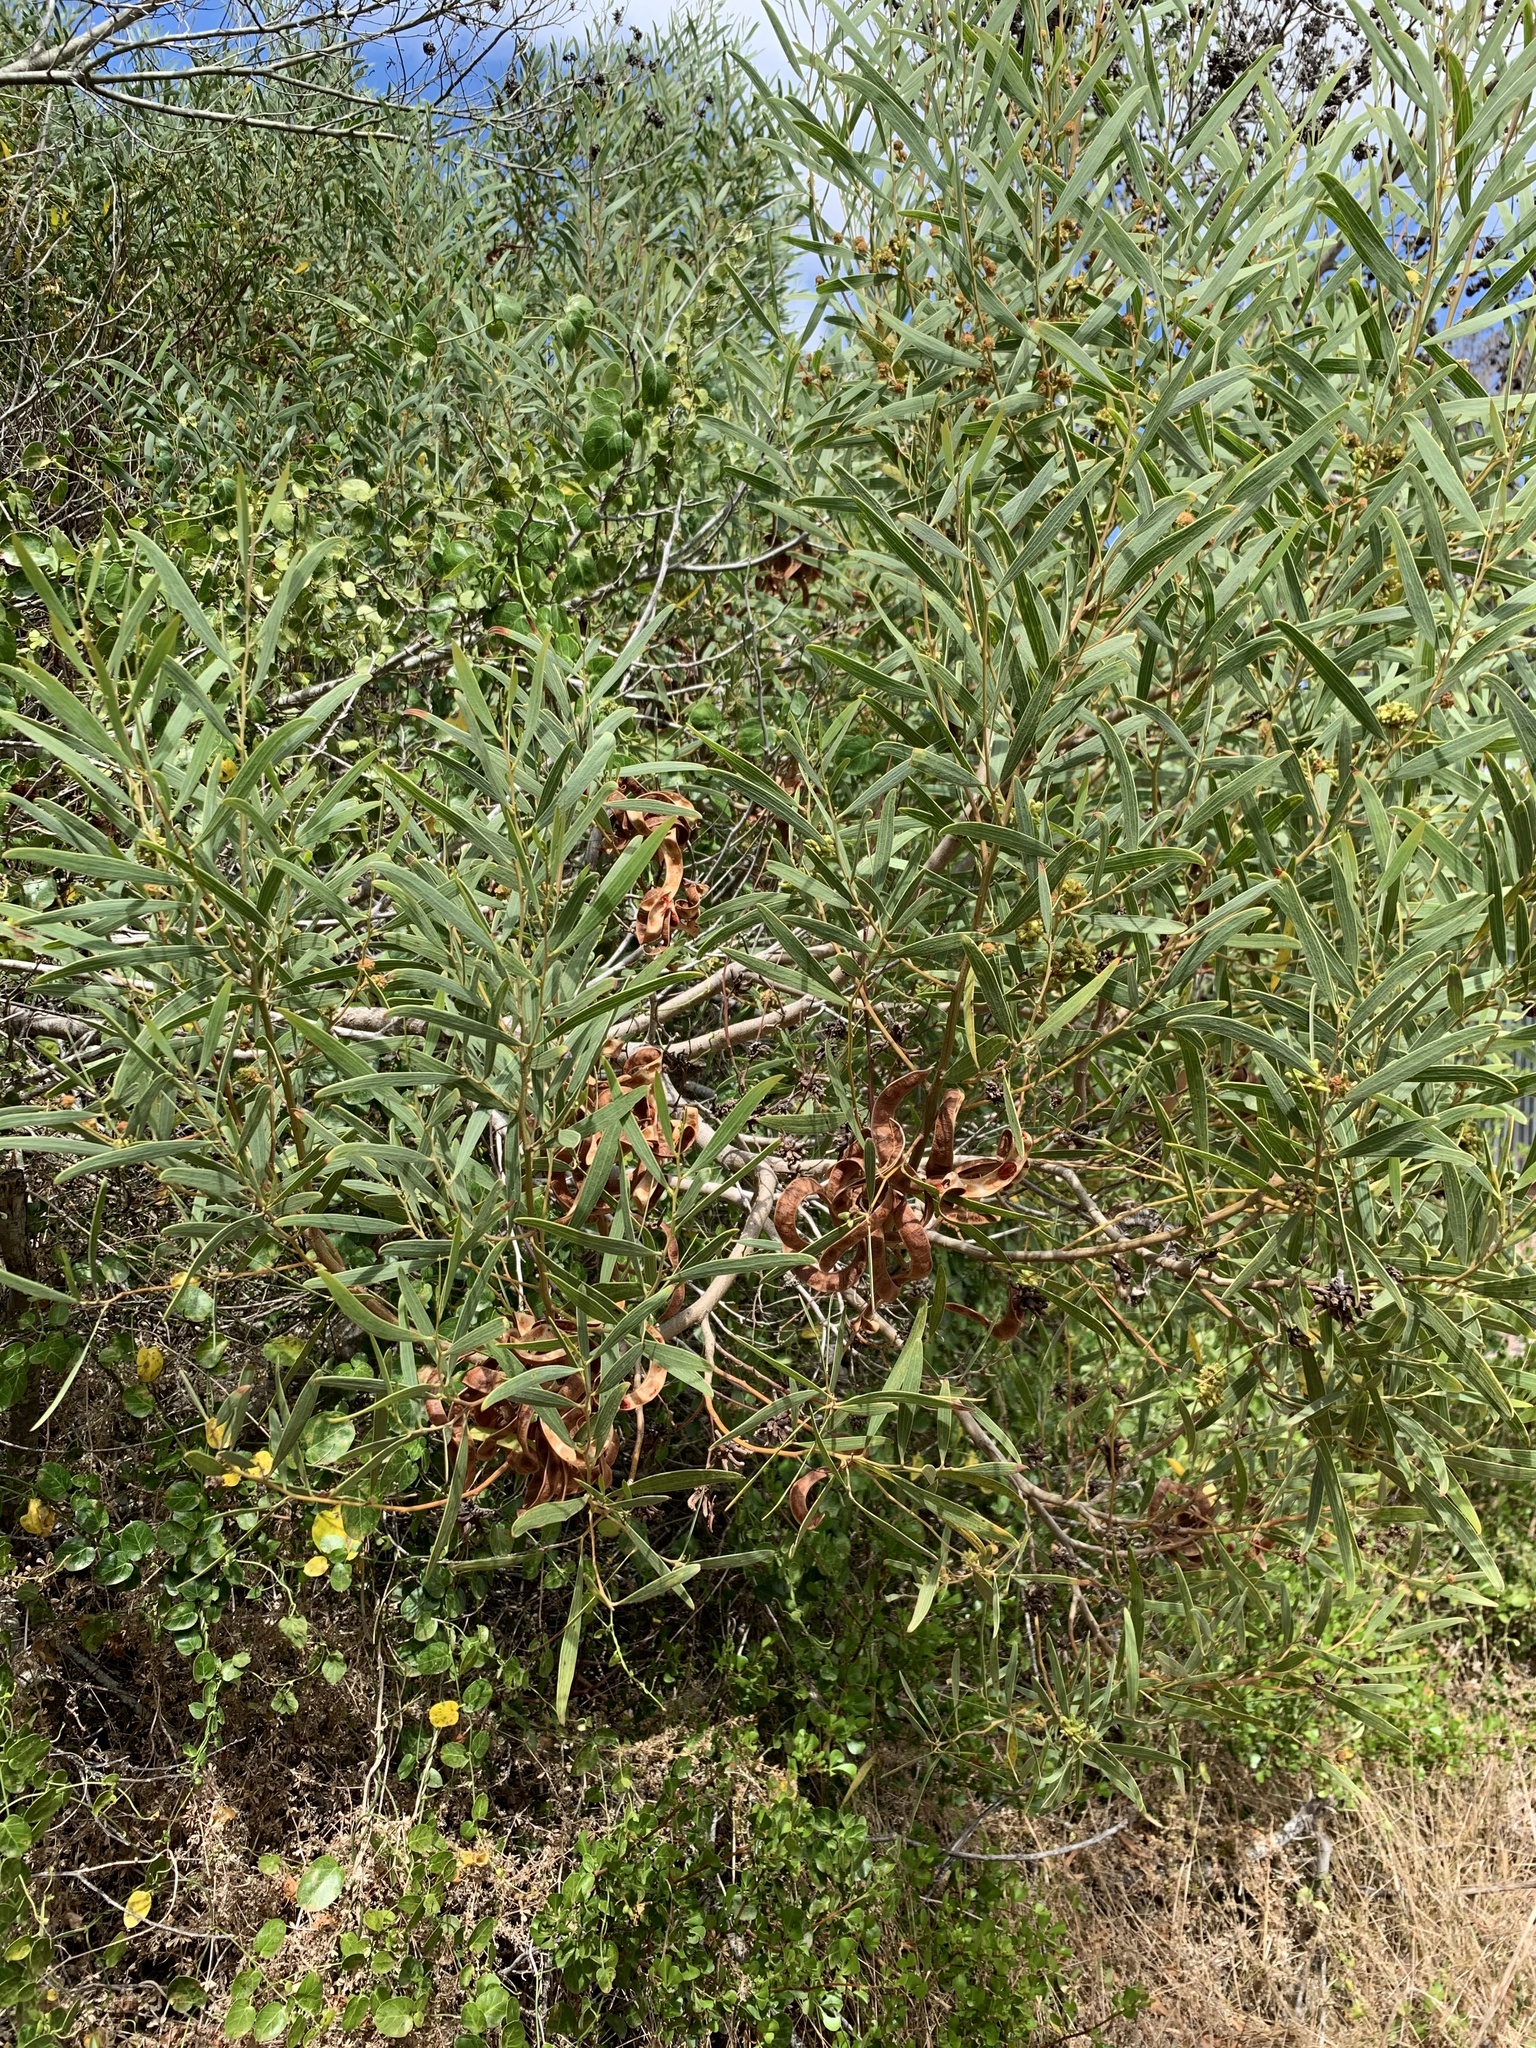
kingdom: Plantae
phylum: Tracheophyta
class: Magnoliopsida
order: Fabales
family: Fabaceae
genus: Acacia
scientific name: Acacia cyclops
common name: Coastal wattle
